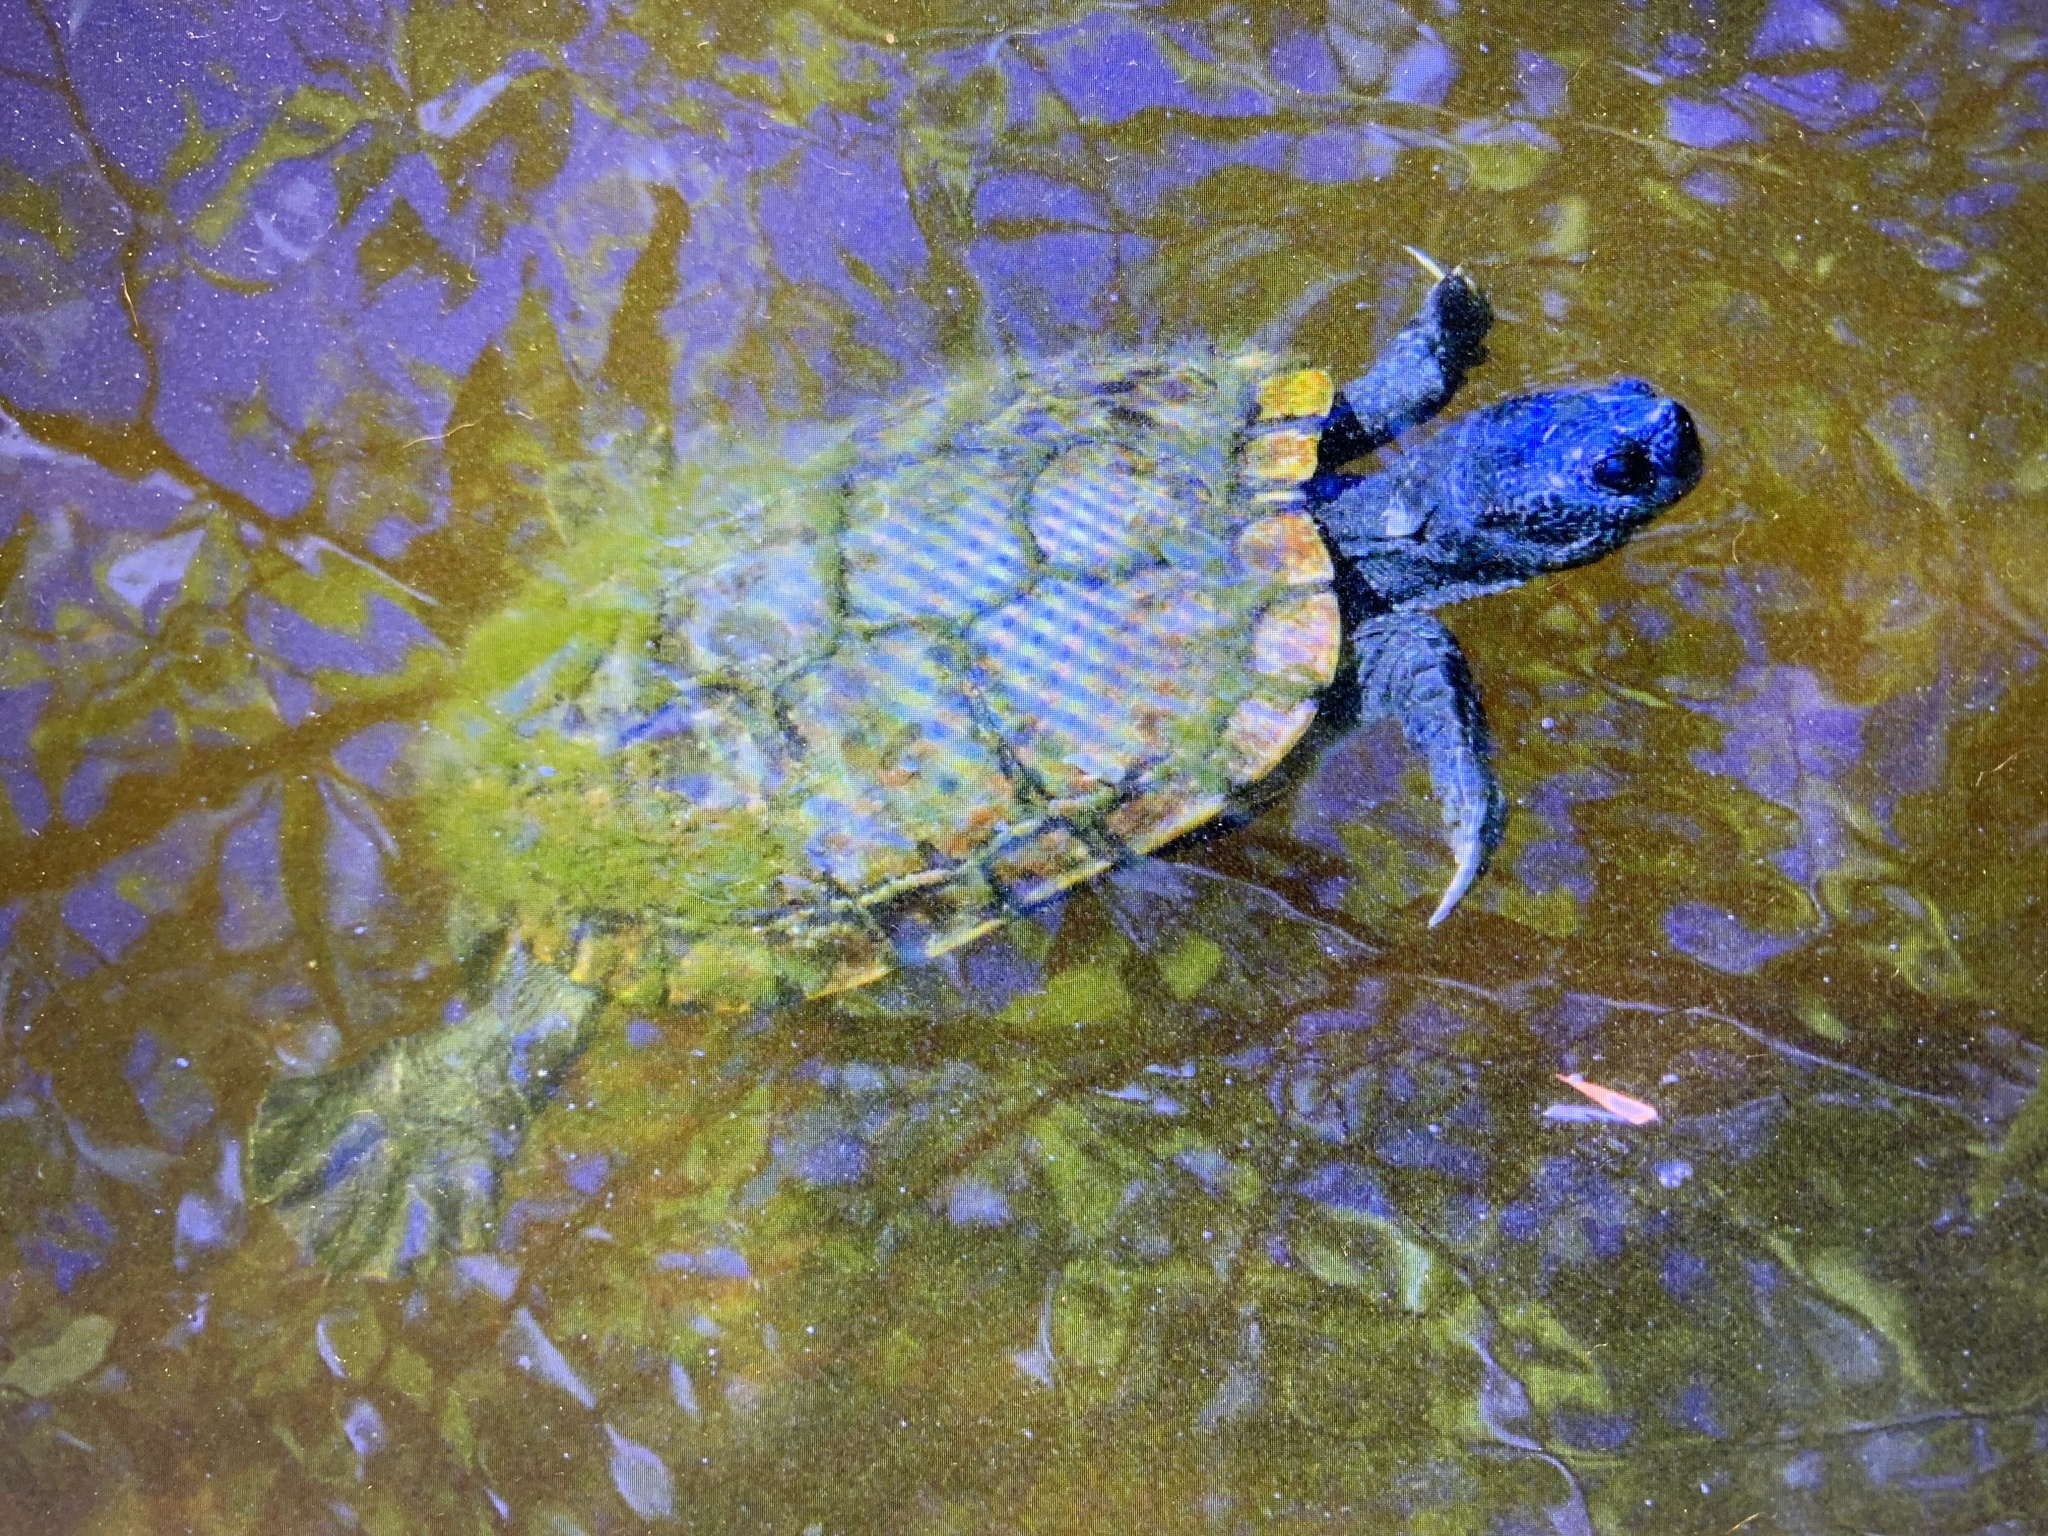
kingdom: Animalia
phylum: Chordata
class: Testudines
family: Emydidae
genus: Trachemys
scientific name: Trachemys scripta
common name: Slider
